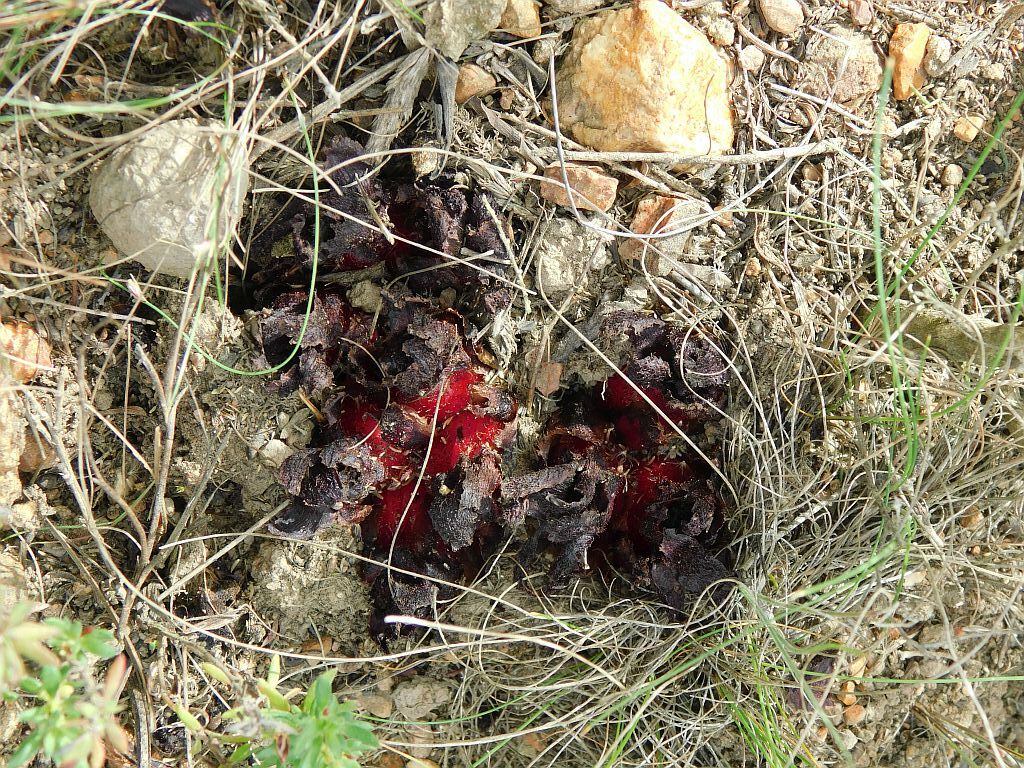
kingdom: Plantae
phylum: Tracheophyta
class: Magnoliopsida
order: Malvales
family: Cytinaceae
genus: Cytinus
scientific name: Cytinus sanguineus
